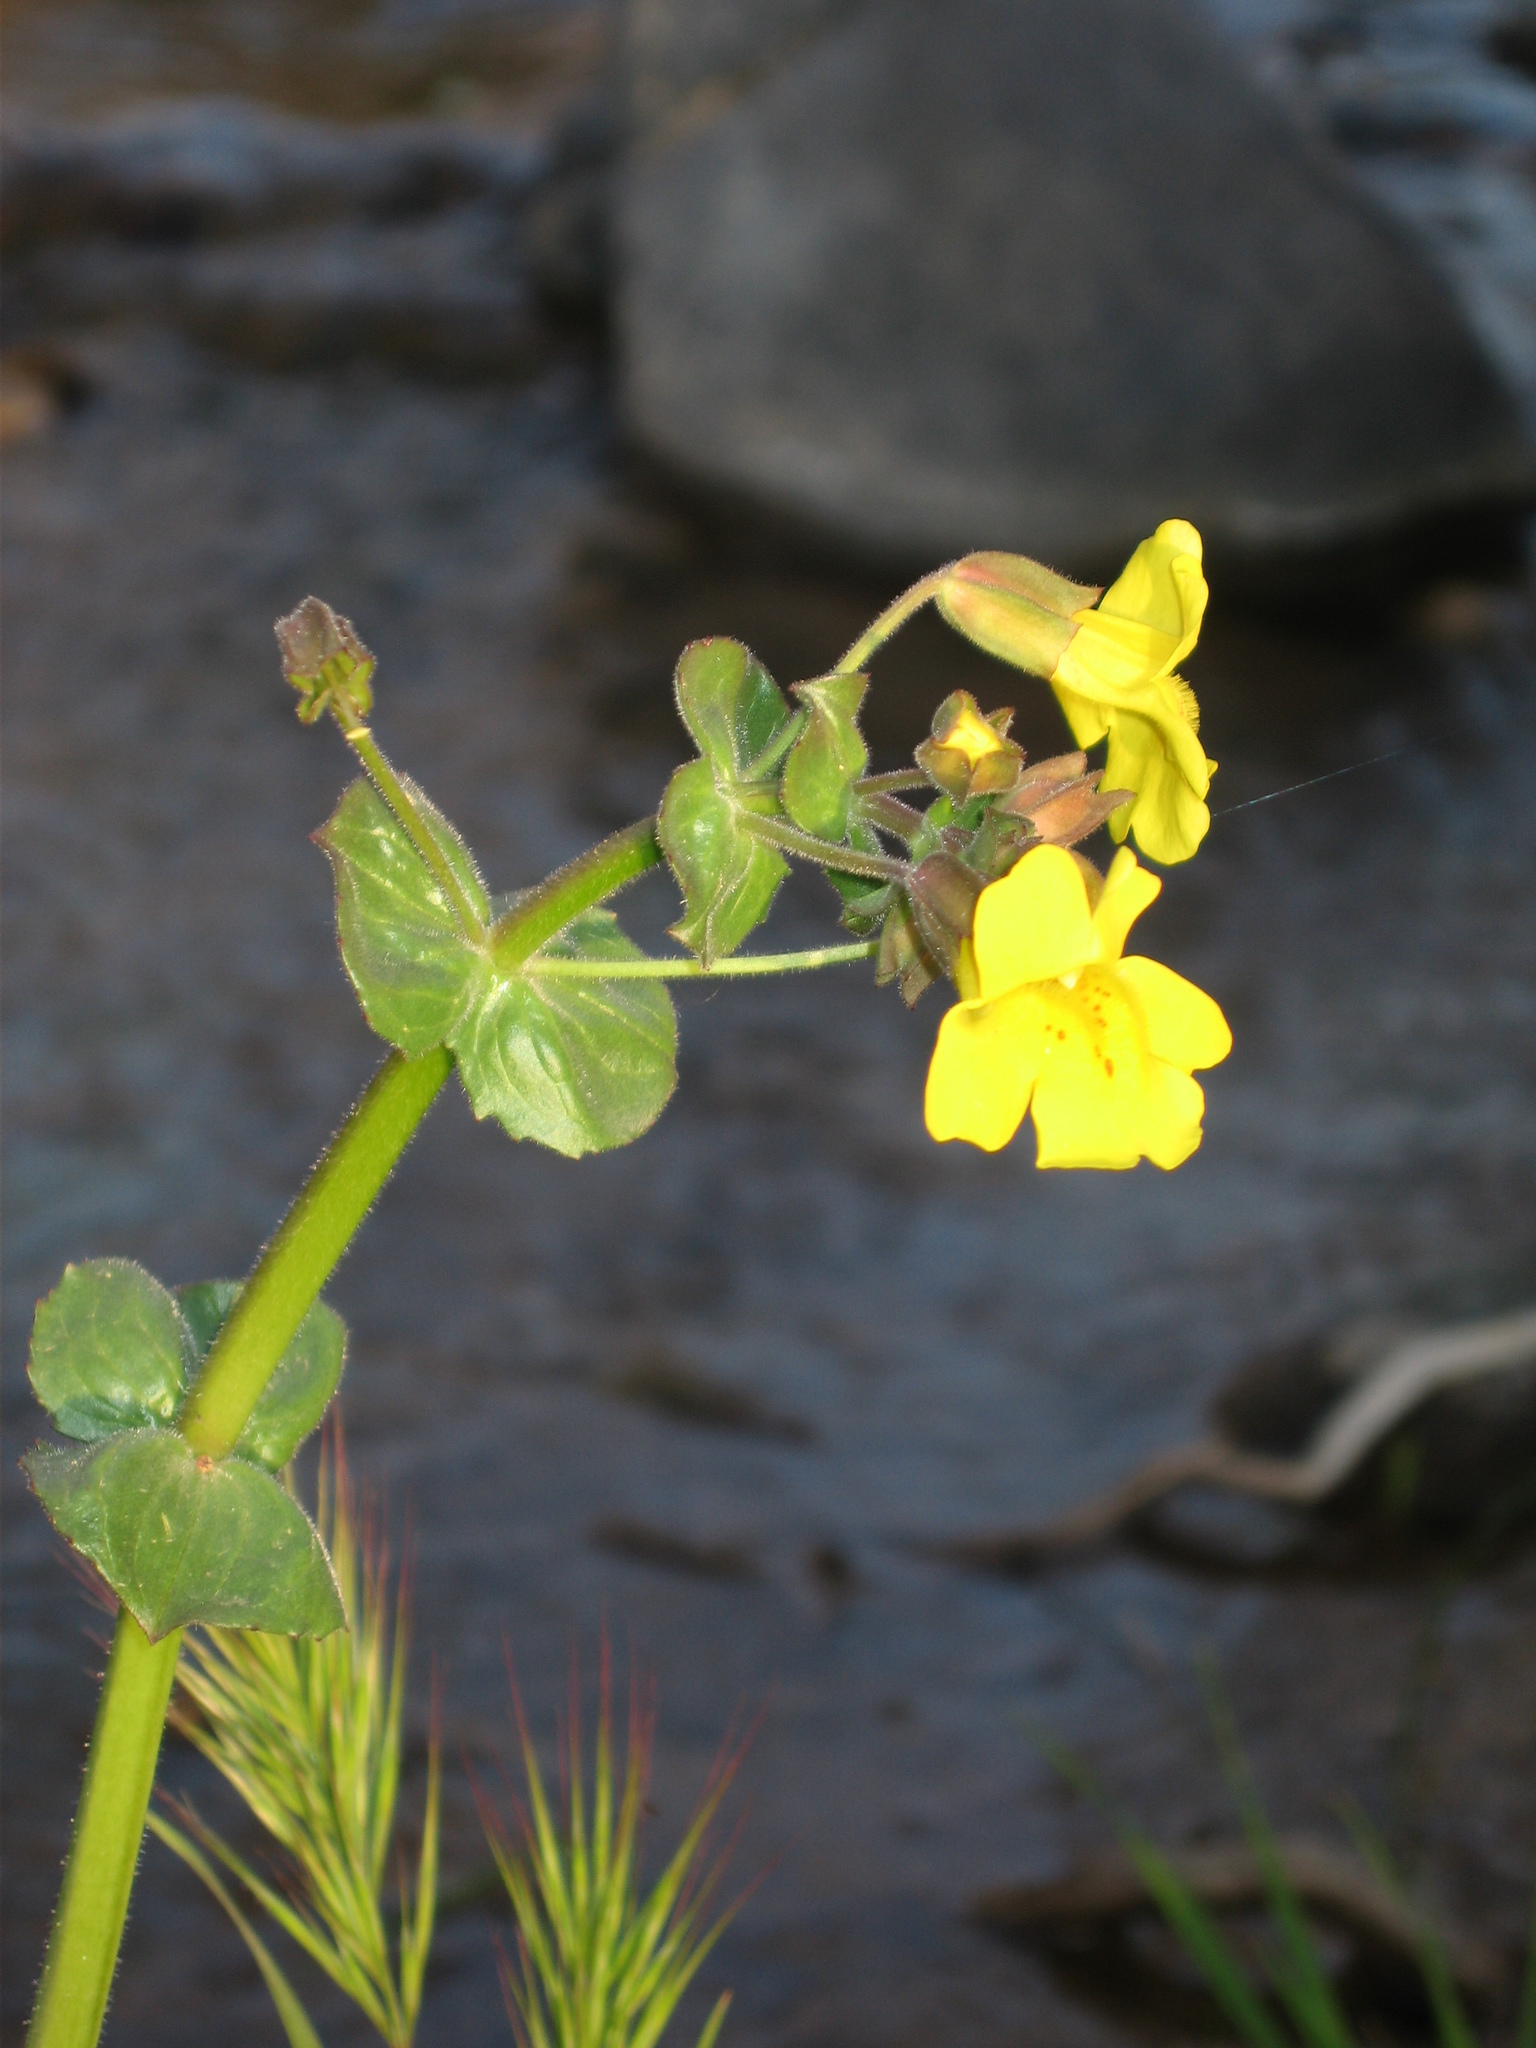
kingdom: Plantae
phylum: Tracheophyta
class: Magnoliopsida
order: Lamiales
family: Phrymaceae
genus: Erythranthe
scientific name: Erythranthe guttata
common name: Monkeyflower
